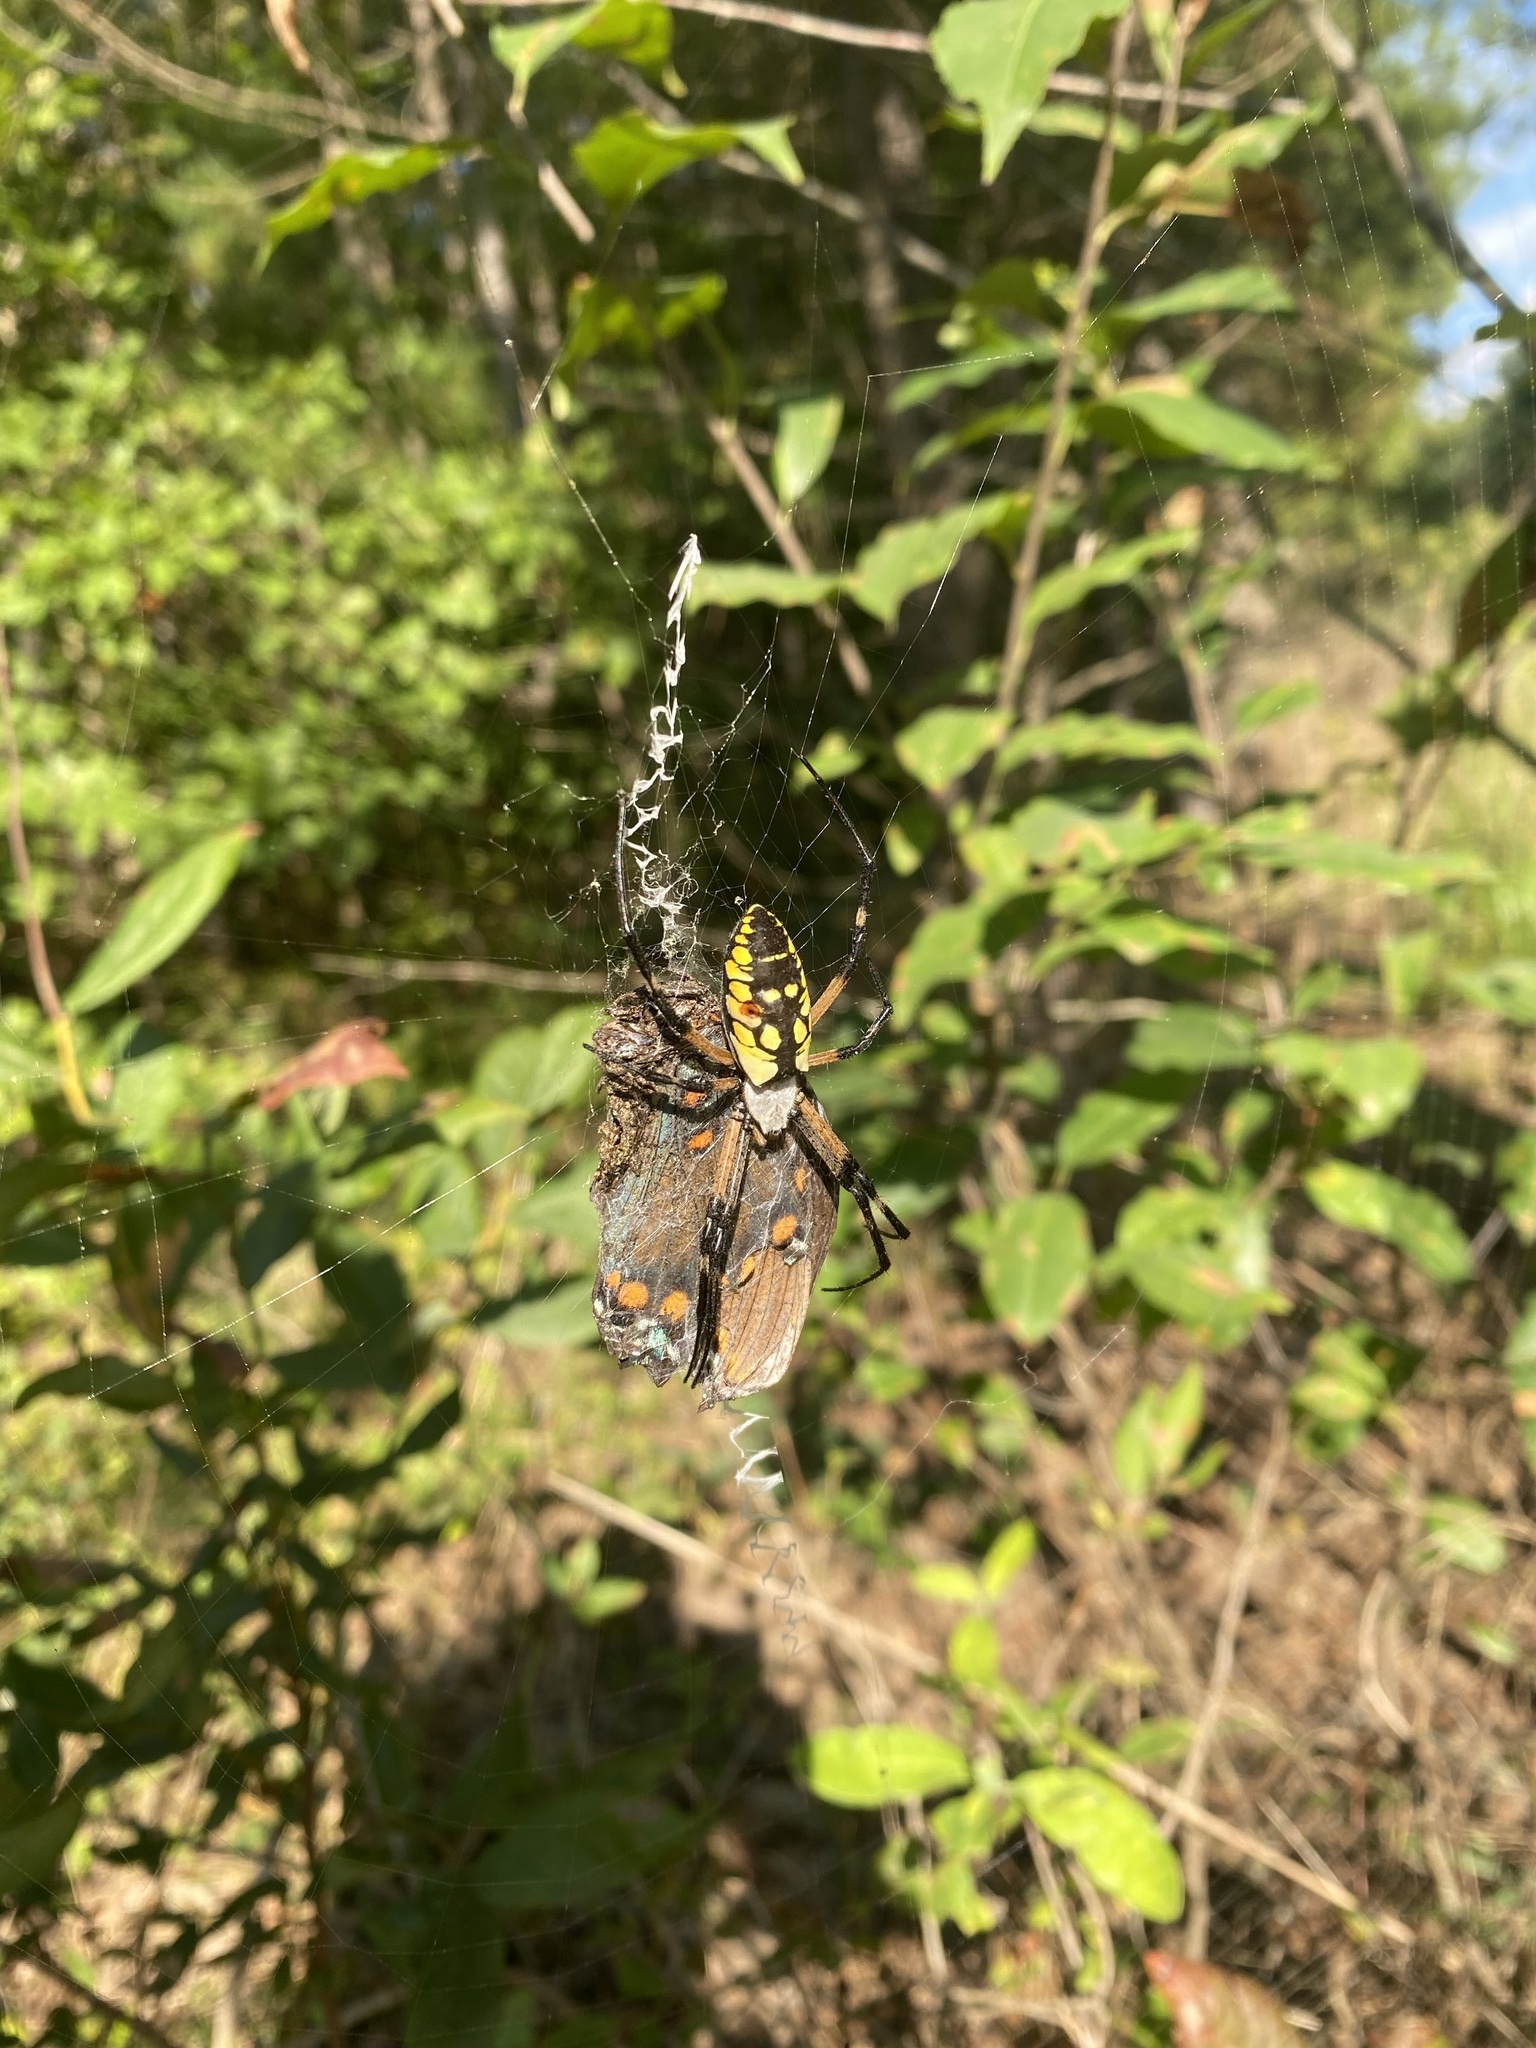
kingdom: Animalia
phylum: Arthropoda
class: Arachnida
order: Araneae
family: Araneidae
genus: Argiope
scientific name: Argiope aurantia
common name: Orb weavers
